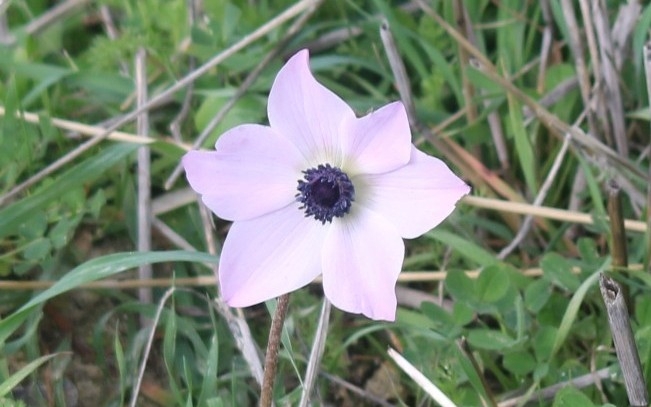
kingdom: Plantae
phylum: Tracheophyta
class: Magnoliopsida
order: Ranunculales
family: Ranunculaceae
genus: Anemone
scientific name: Anemone coronaria
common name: Poppy anemone
